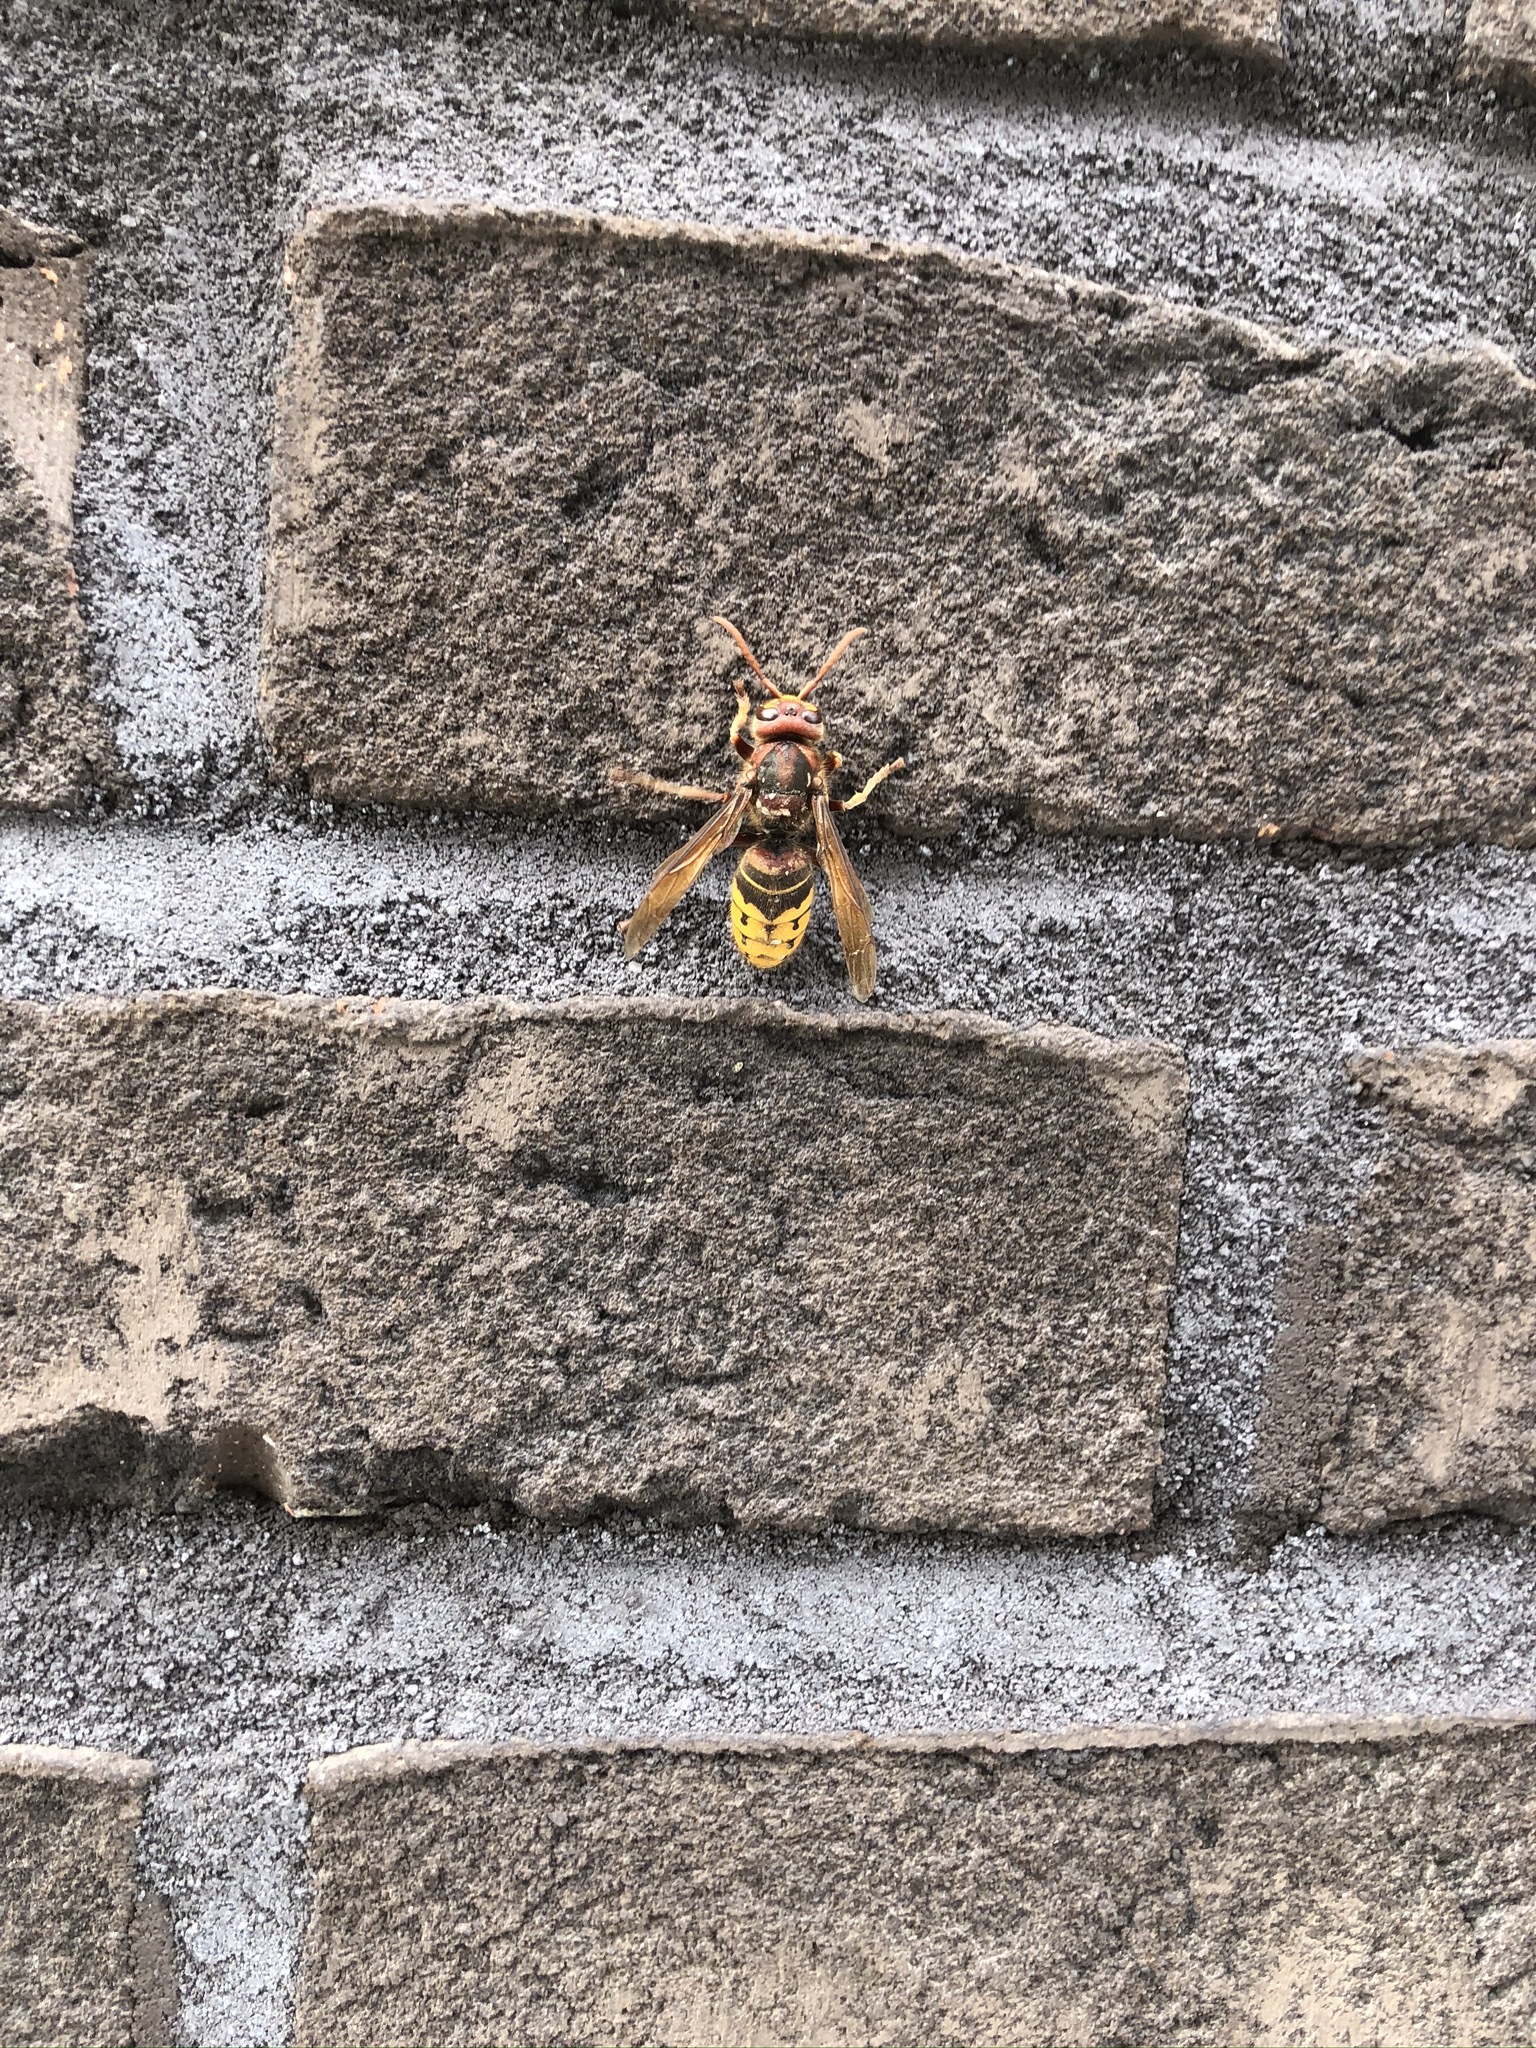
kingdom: Animalia
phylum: Arthropoda
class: Insecta
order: Hymenoptera
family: Vespidae
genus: Vespa
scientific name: Vespa crabro
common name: Hornet
